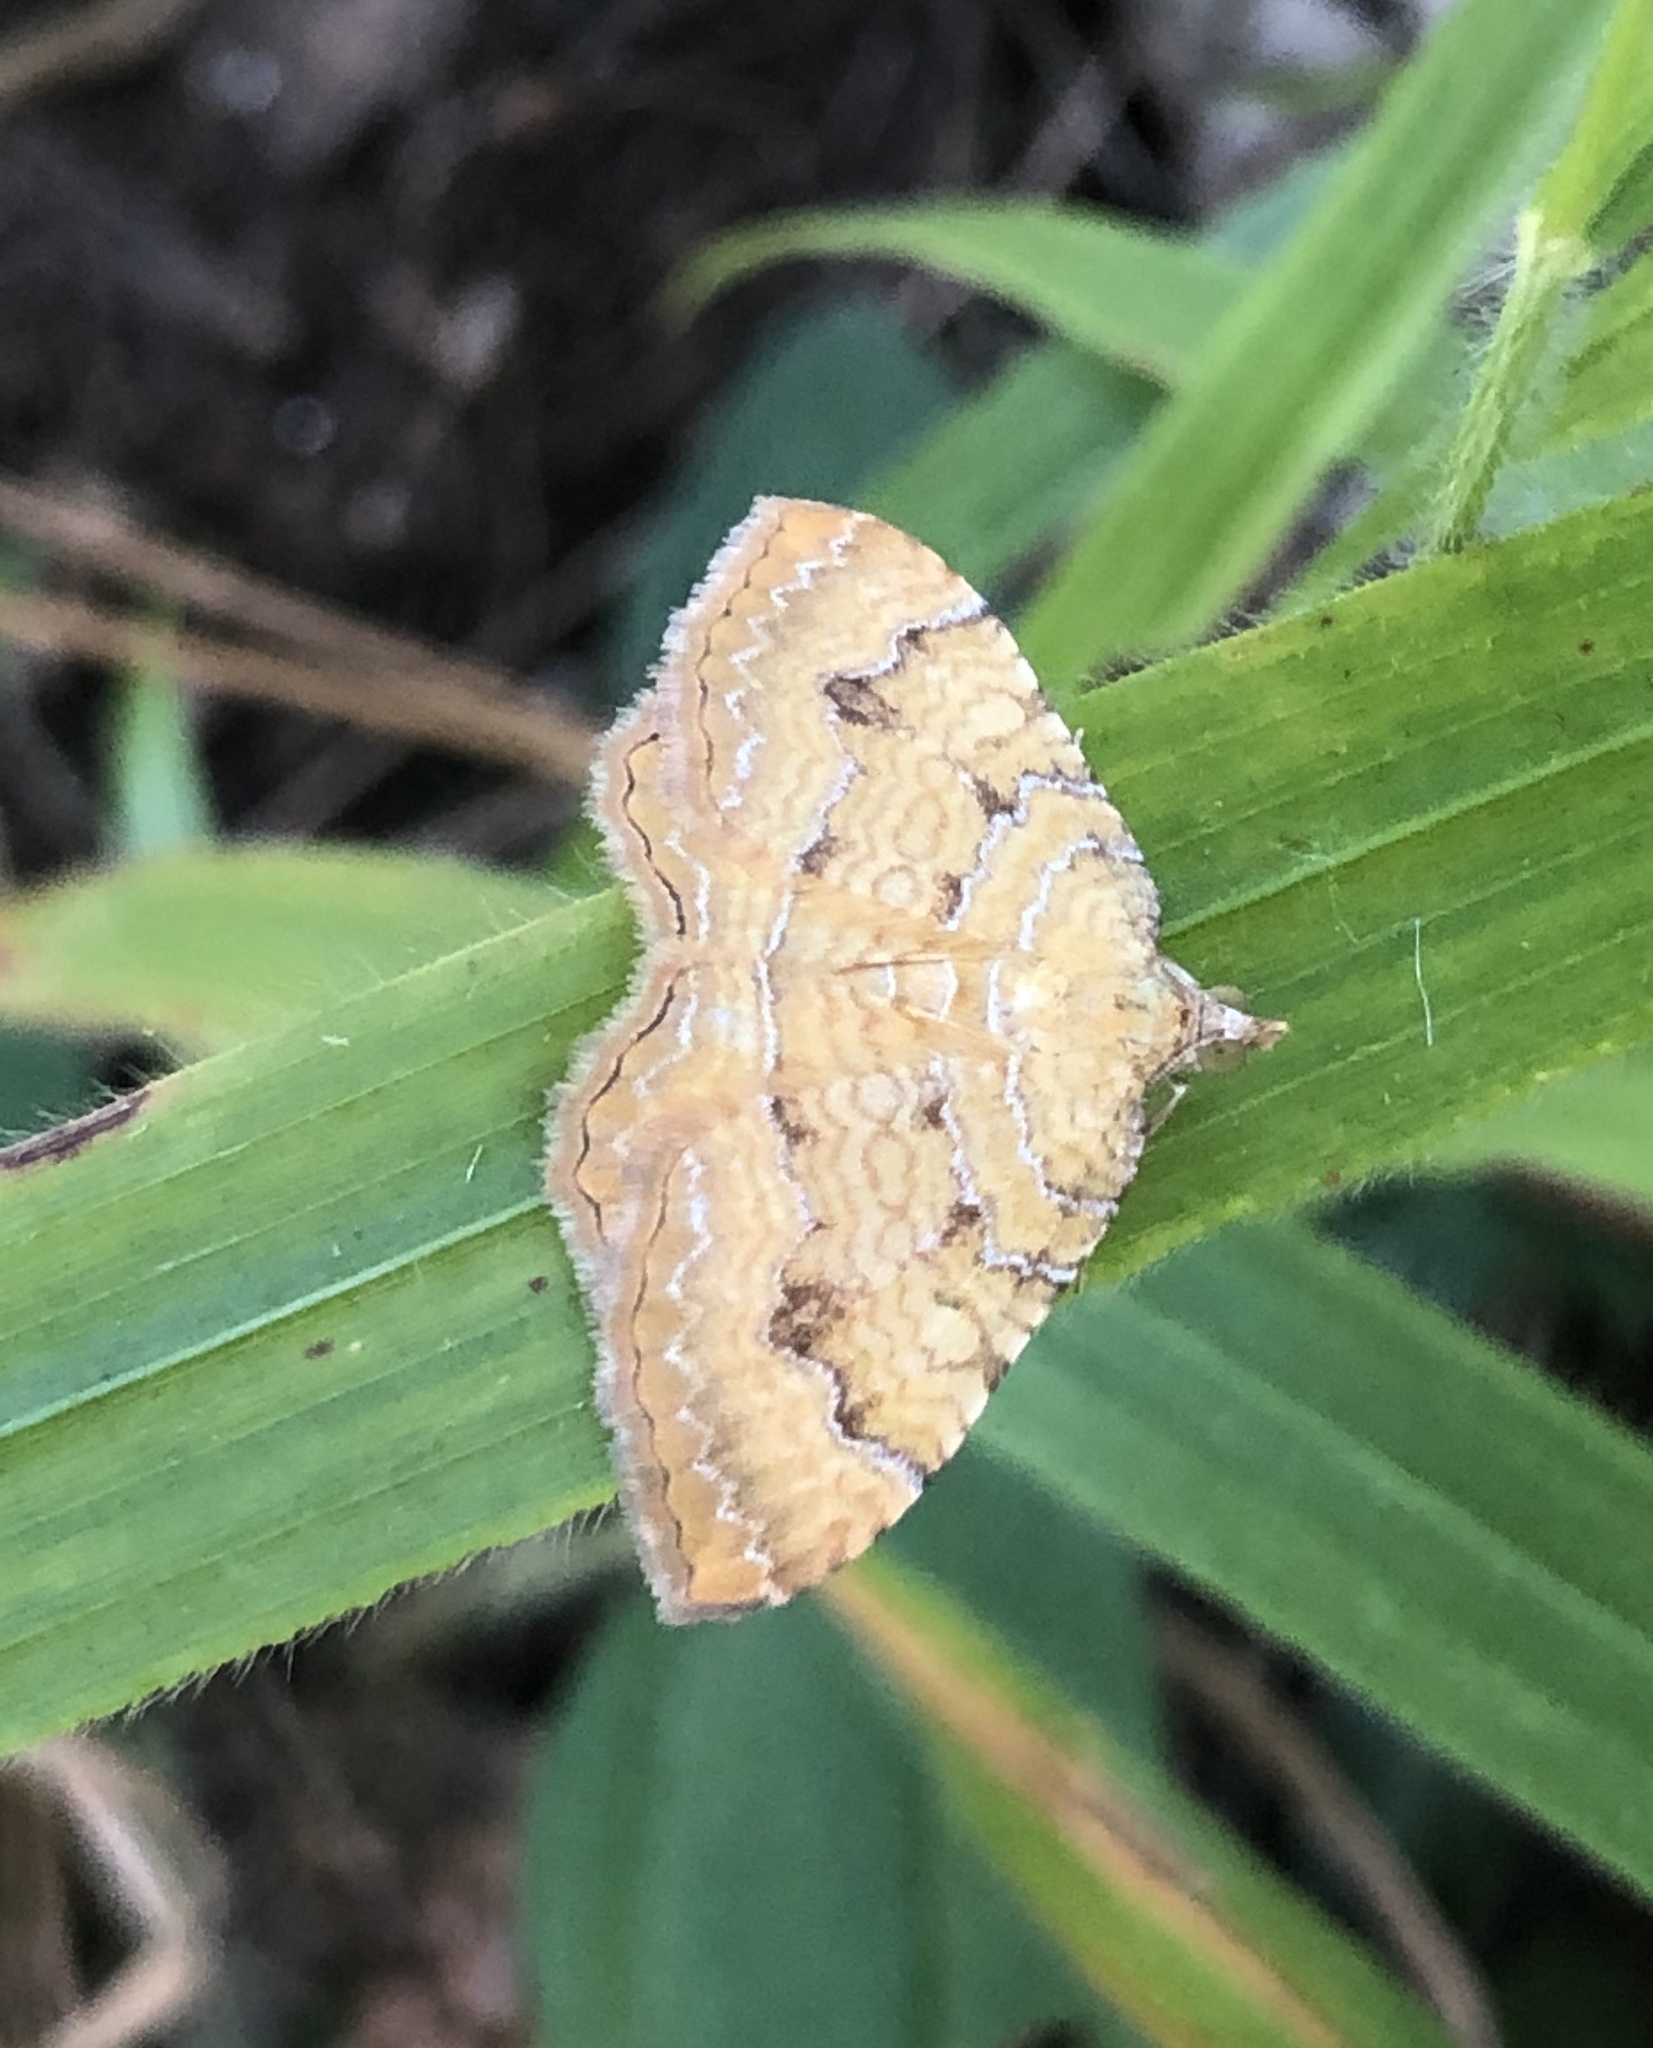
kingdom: Animalia
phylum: Arthropoda
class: Insecta
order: Lepidoptera
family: Geometridae
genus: Camptogramma
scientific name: Camptogramma bilineata
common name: Yellow shell
